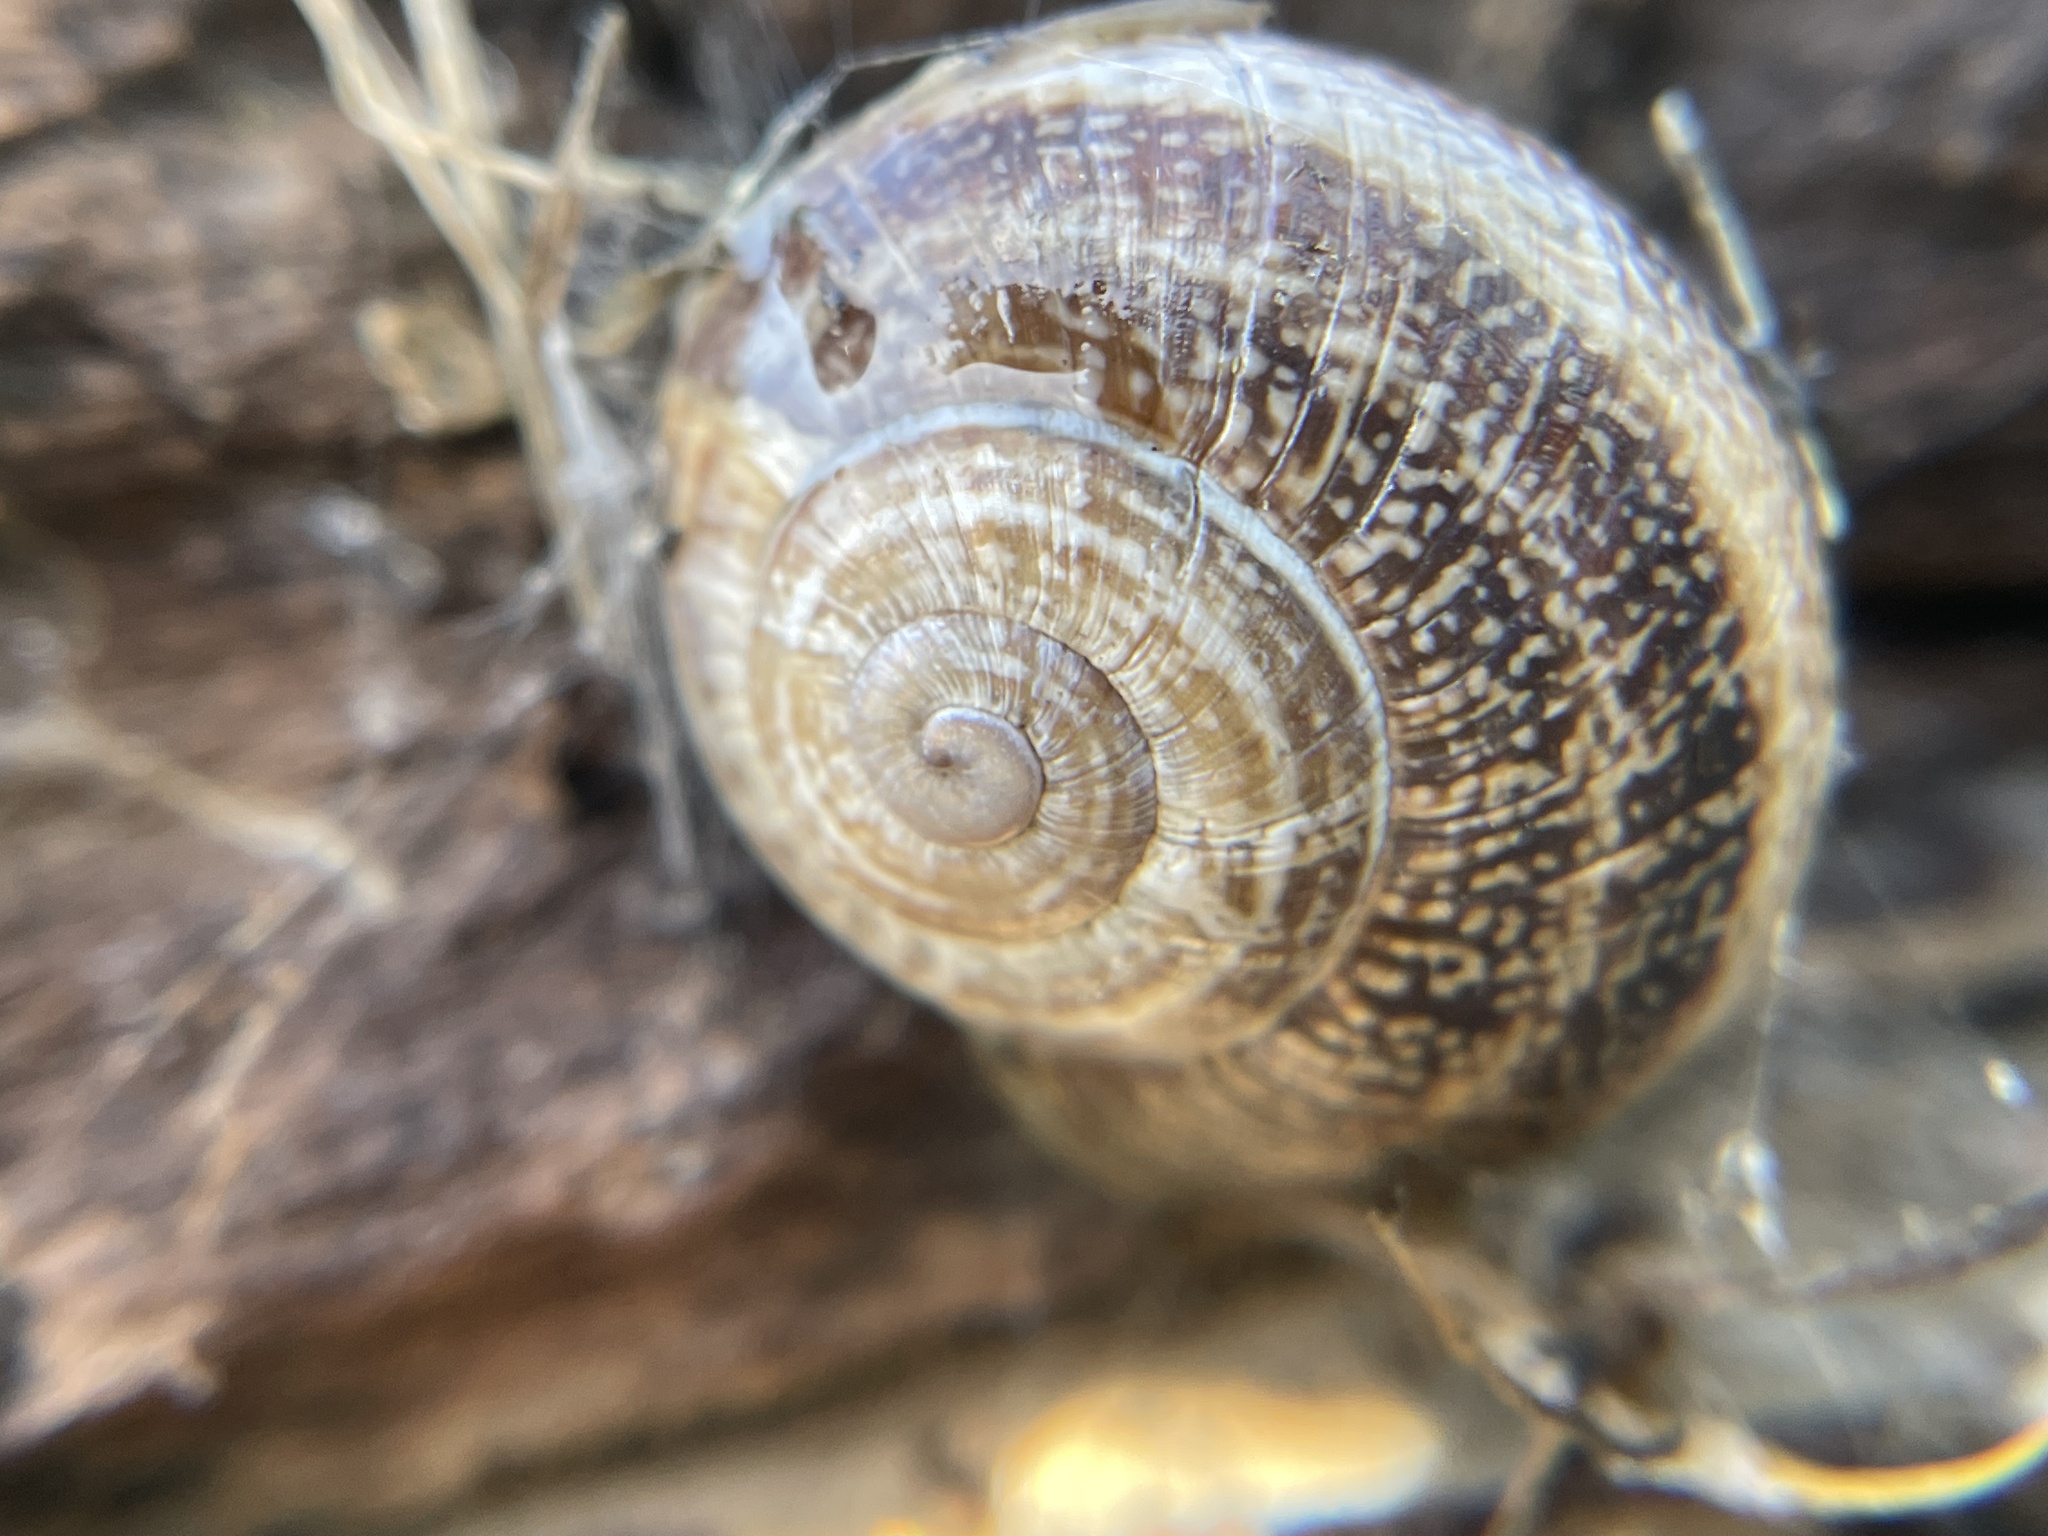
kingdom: Animalia
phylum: Mollusca
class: Gastropoda
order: Stylommatophora
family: Helicidae
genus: Otala
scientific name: Otala lactea
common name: Milk snail
